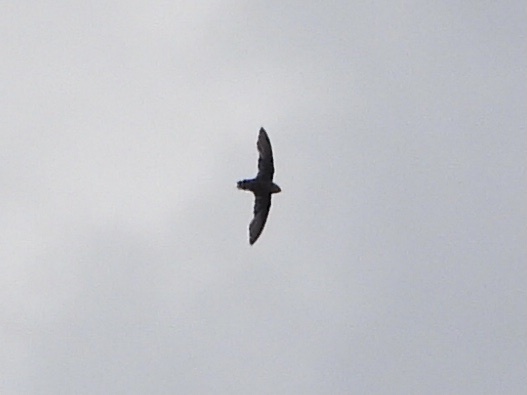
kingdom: Animalia
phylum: Chordata
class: Aves
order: Apodiformes
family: Apodidae
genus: Chaetura
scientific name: Chaetura vauxi
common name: Vaux's swift
